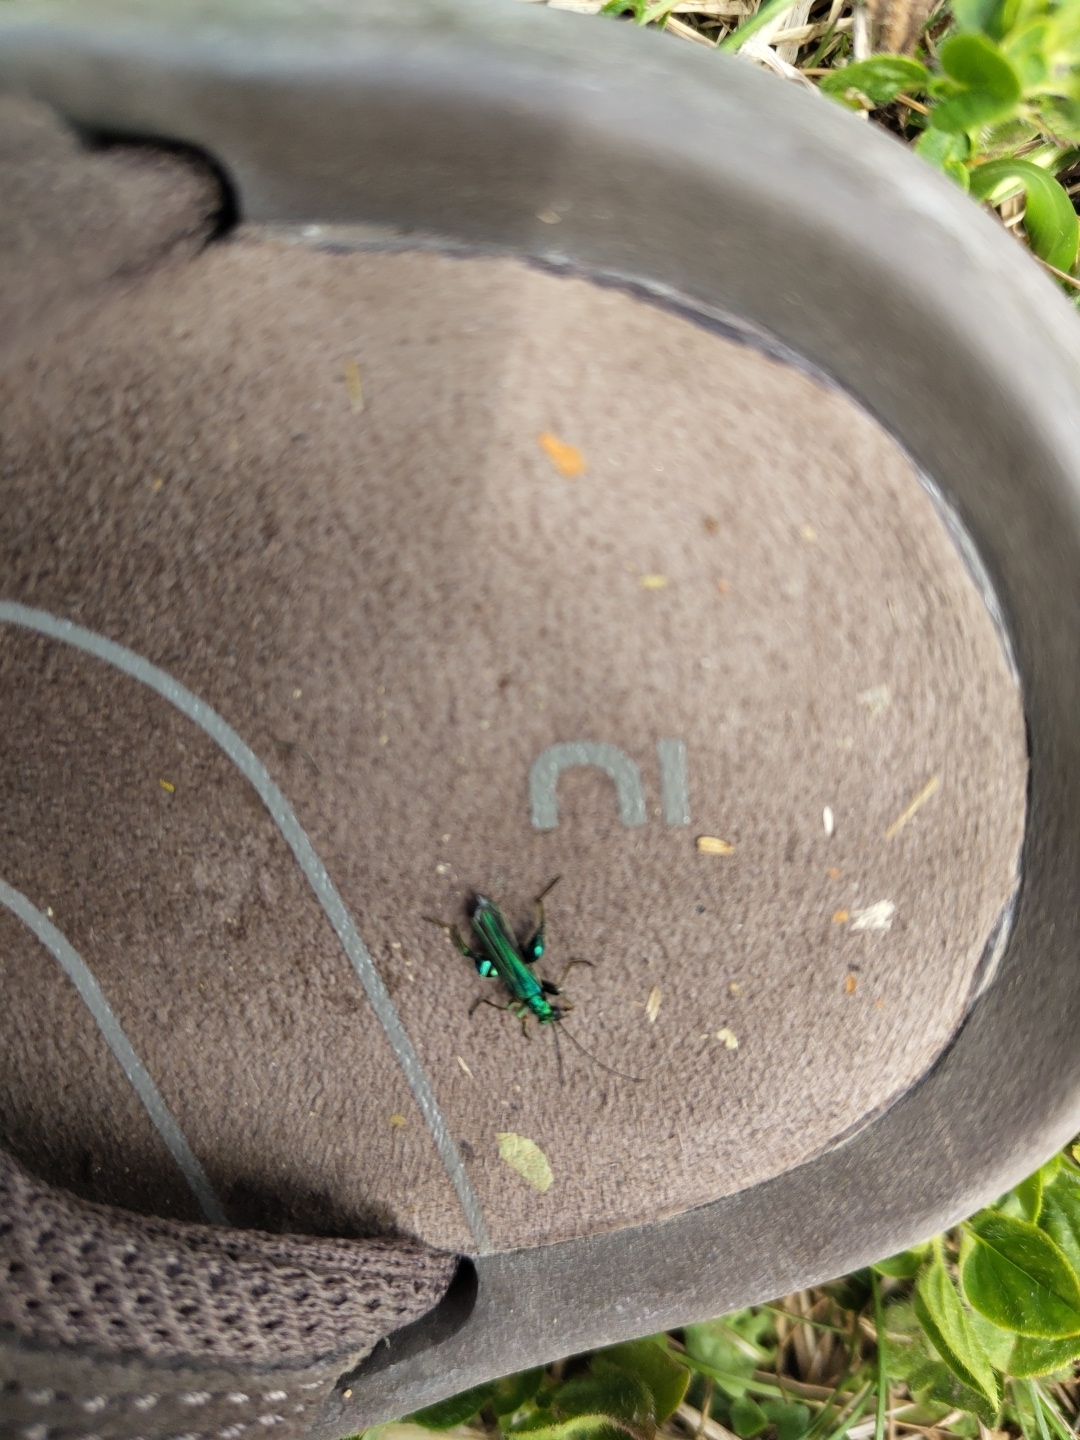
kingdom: Animalia
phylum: Arthropoda
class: Insecta
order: Coleoptera
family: Oedemeridae
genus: Oedemera
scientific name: Oedemera nobilis
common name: Swollen-thighed beetle
